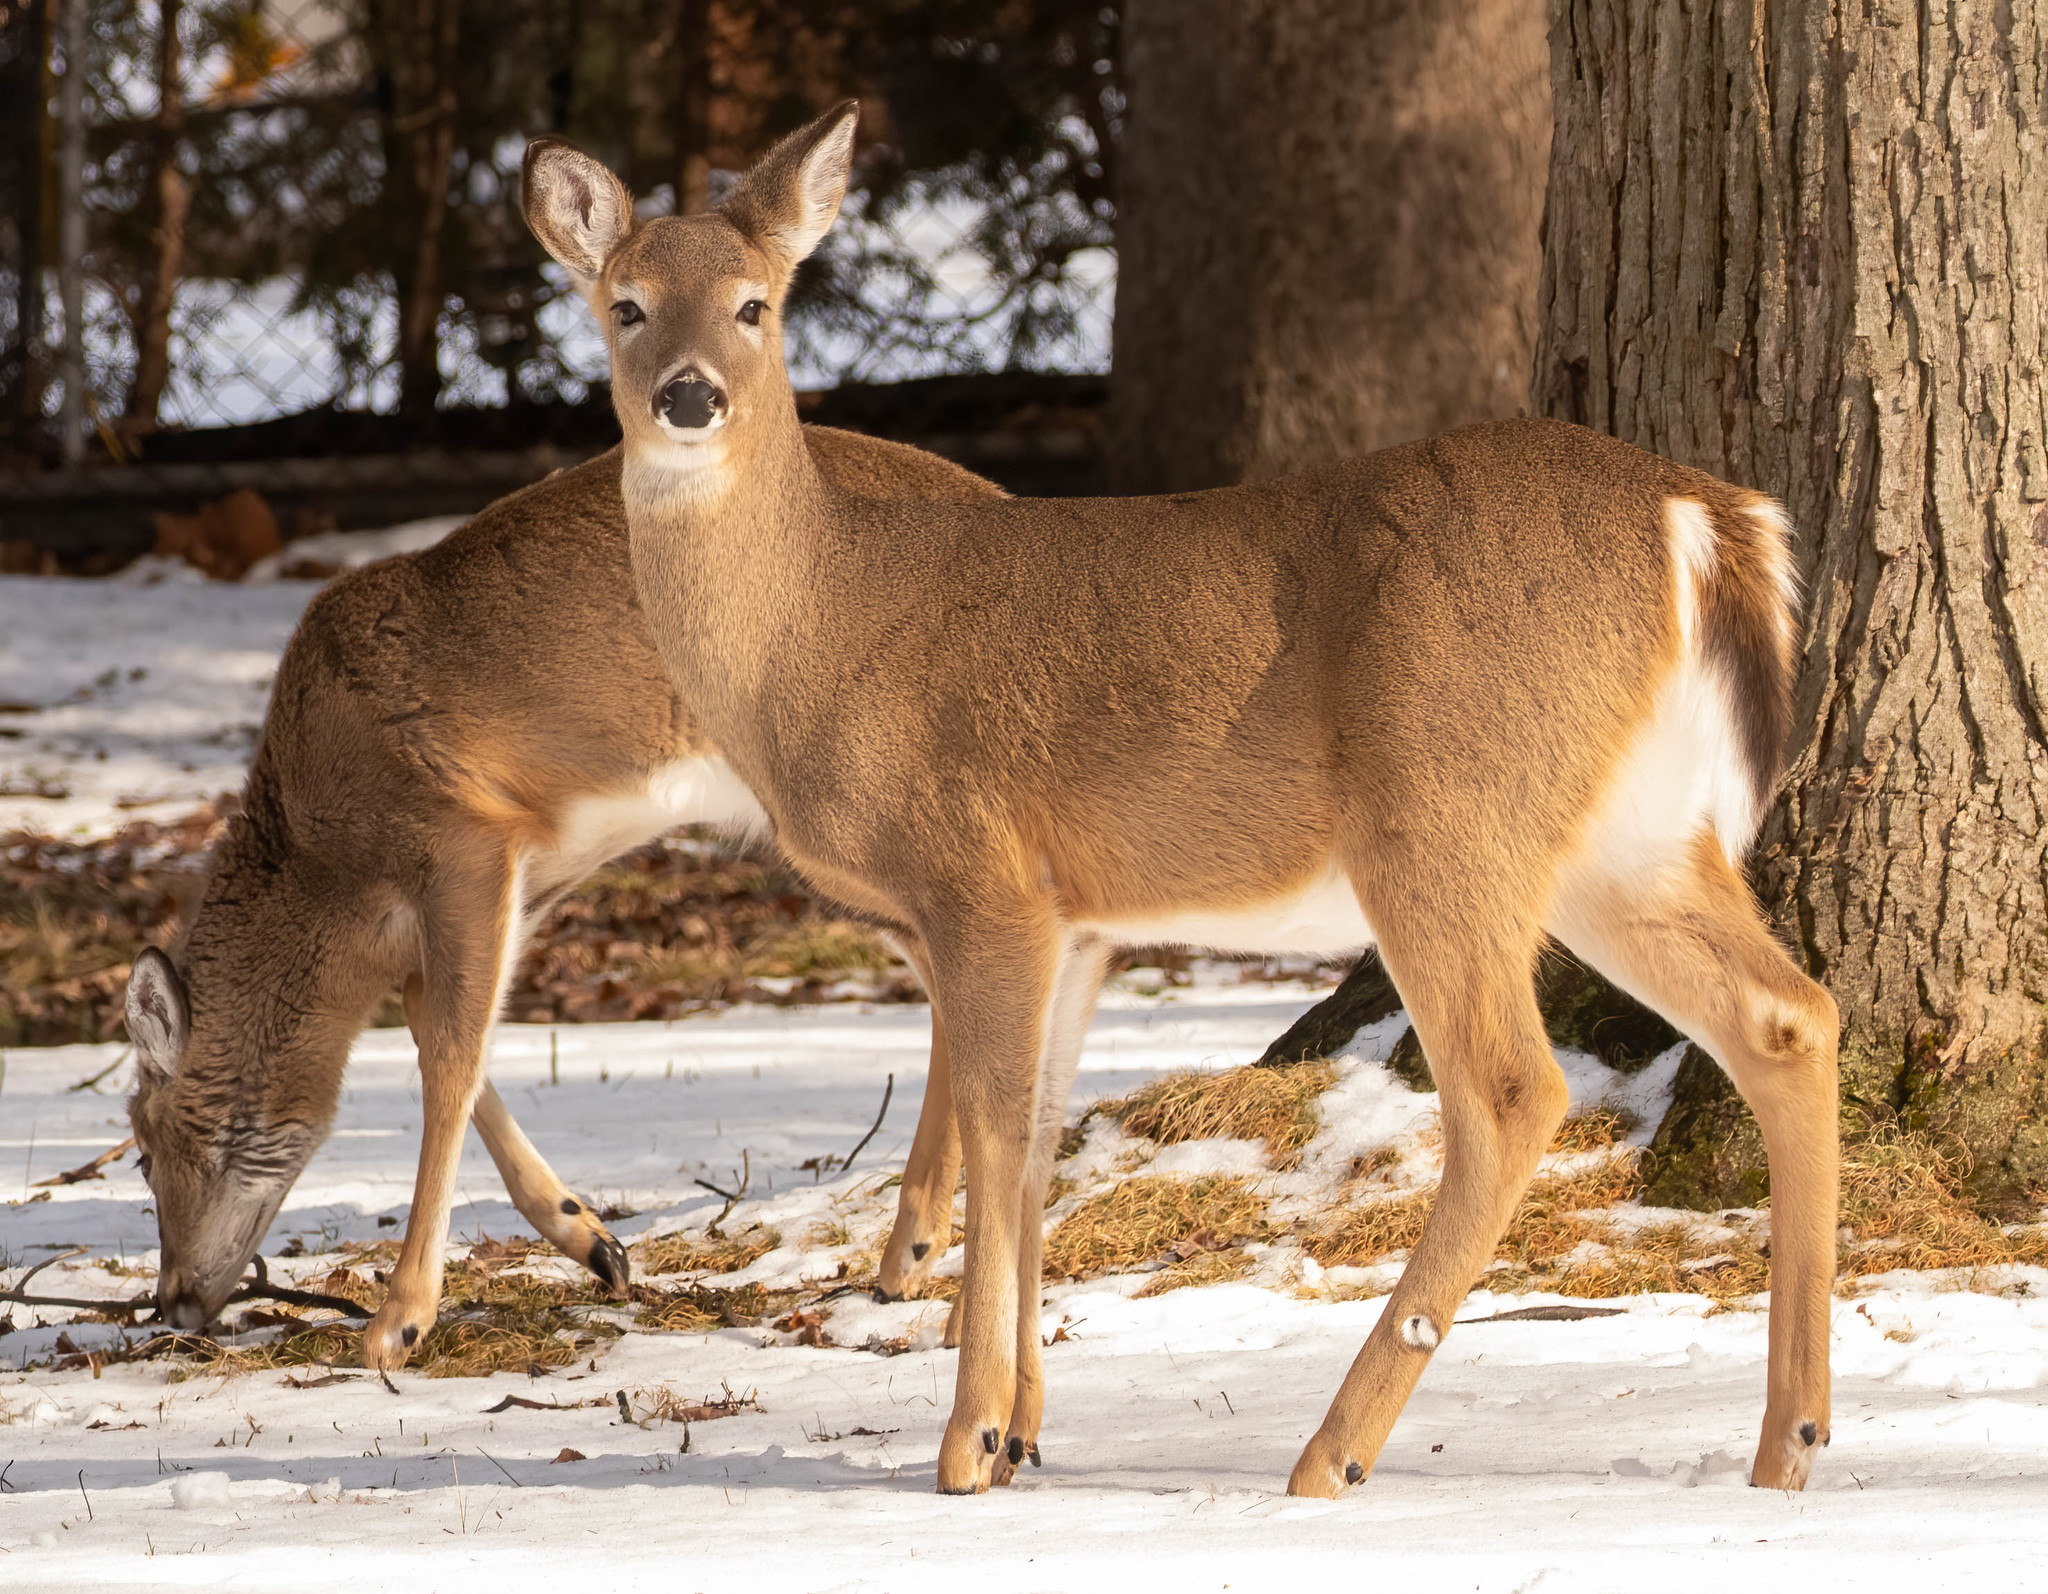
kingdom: Animalia
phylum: Chordata
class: Mammalia
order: Artiodactyla
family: Cervidae
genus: Odocoileus
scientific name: Odocoileus virginianus
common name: White-tailed deer
